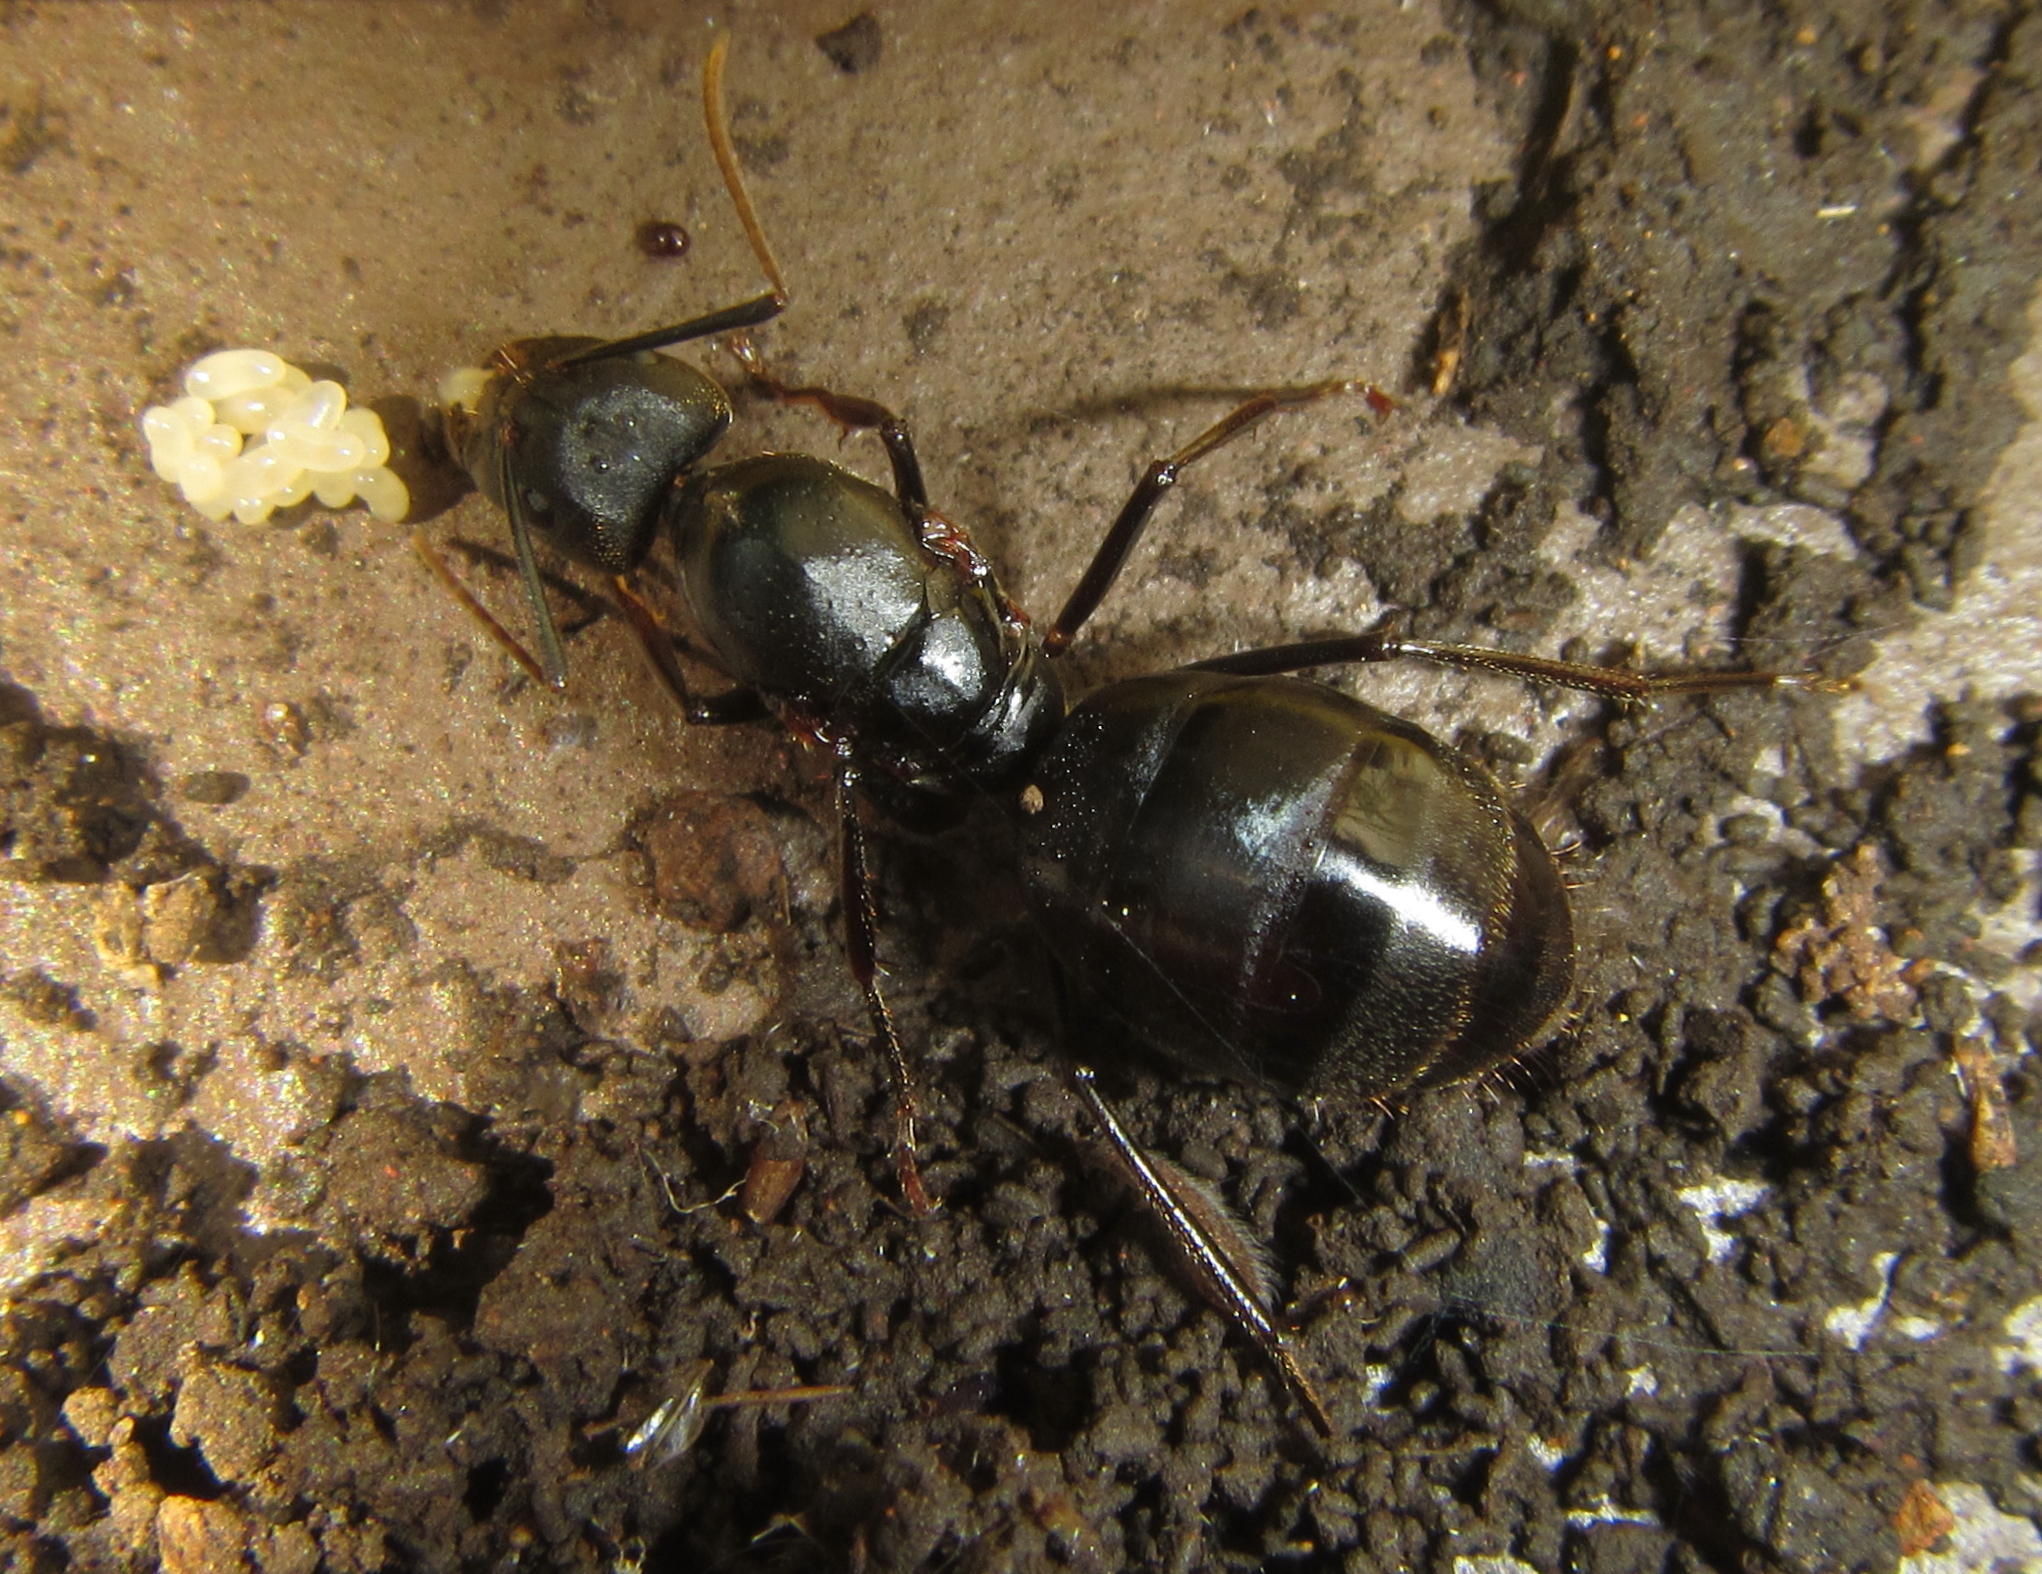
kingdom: Animalia
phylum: Arthropoda
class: Insecta
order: Hymenoptera
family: Formicidae
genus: Camponotus
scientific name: Camponotus natalensis
